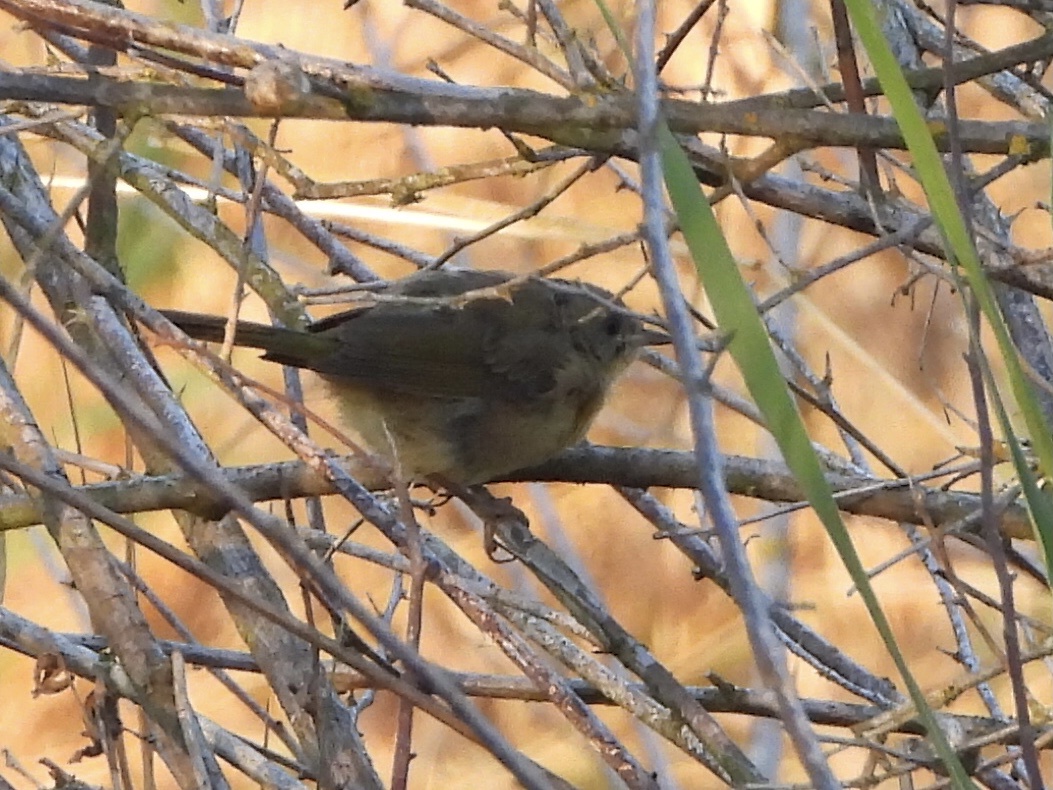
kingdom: Animalia
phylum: Chordata
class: Aves
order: Passeriformes
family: Parulidae
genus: Geothlypis
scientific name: Geothlypis trichas
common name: Common yellowthroat
